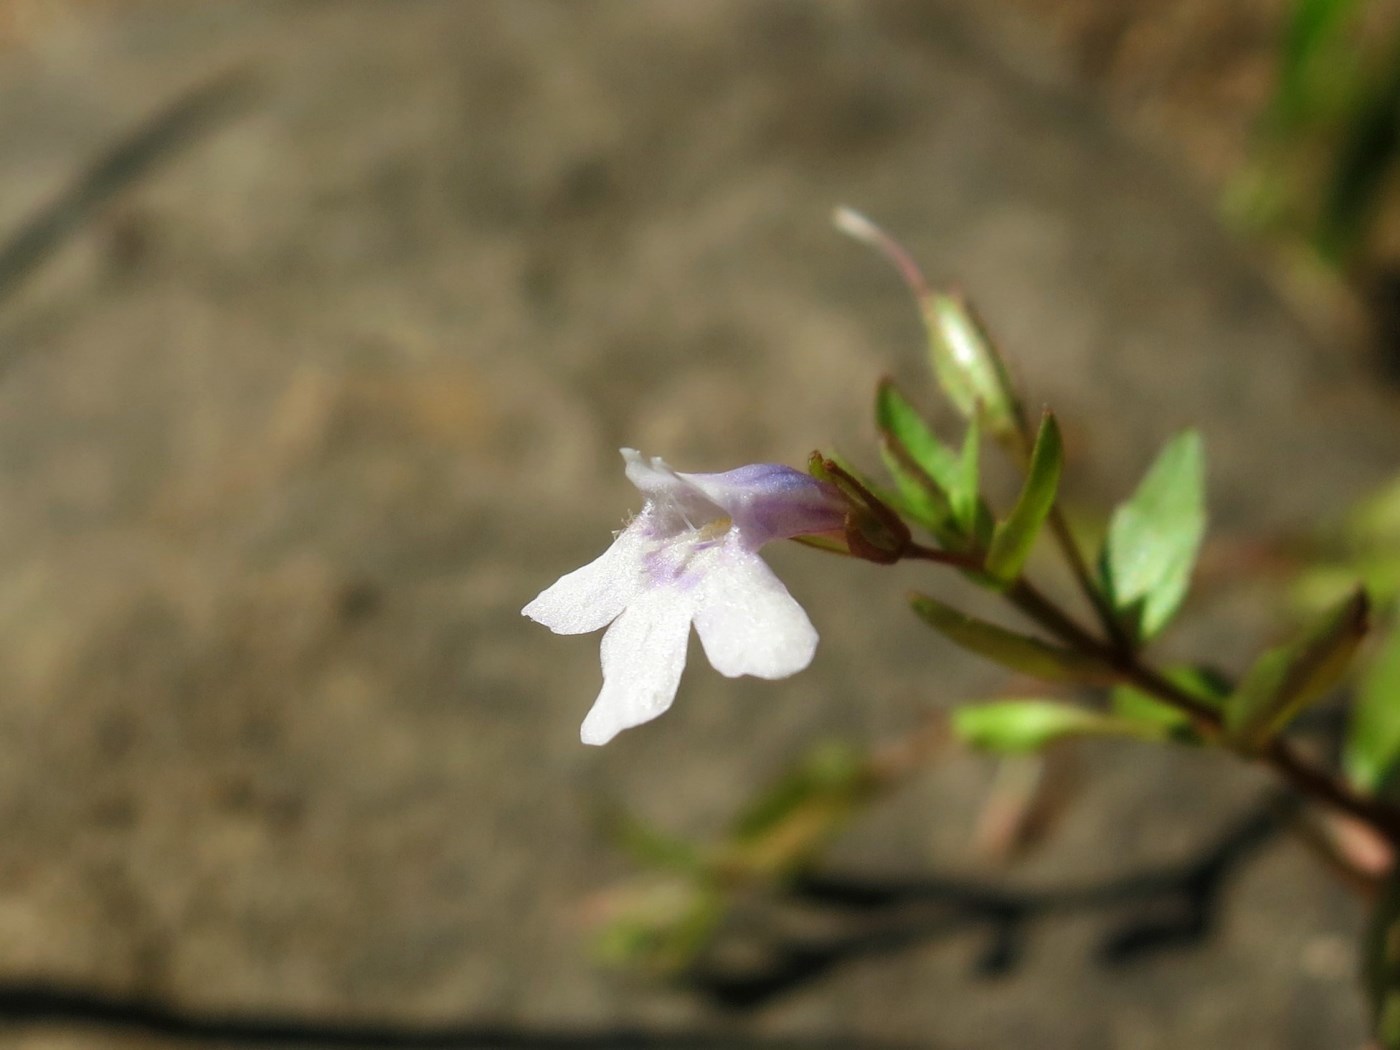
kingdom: Plantae
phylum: Tracheophyta
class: Magnoliopsida
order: Lamiales
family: Linderniaceae
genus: Lindernia
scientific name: Lindernia dubia
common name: Annual false pimpernel
